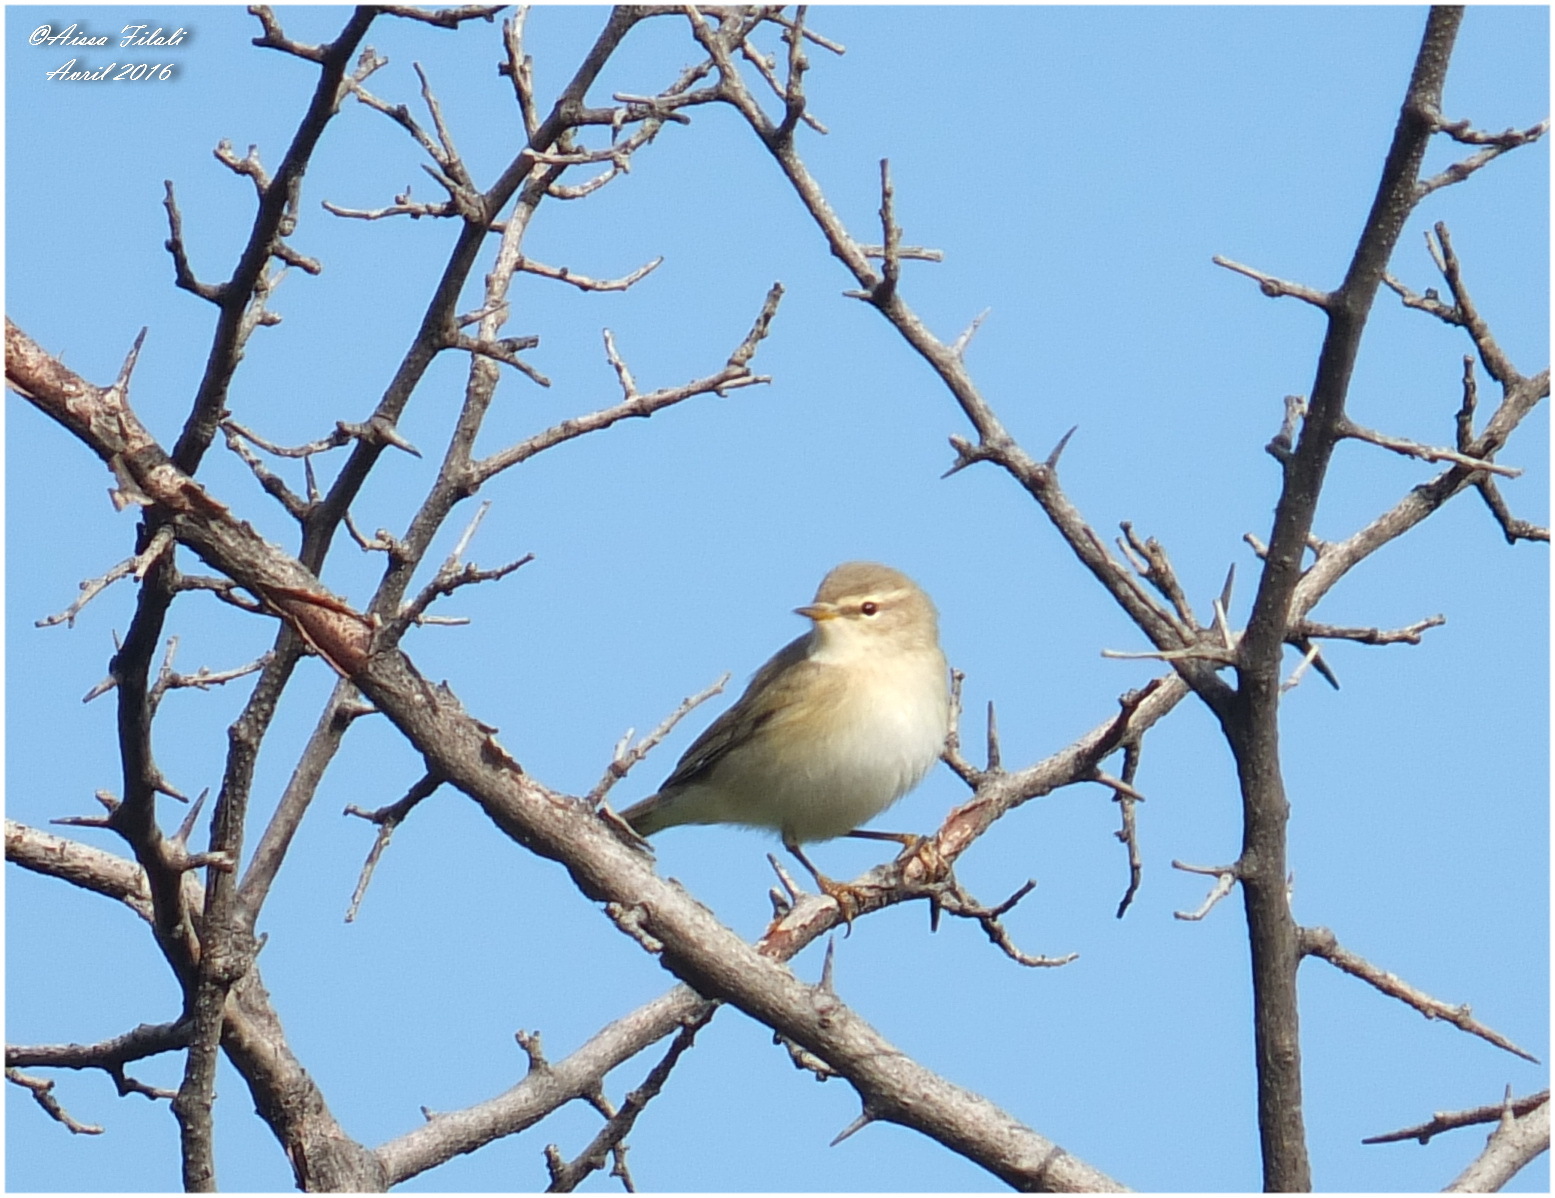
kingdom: Animalia
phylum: Chordata
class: Aves
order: Passeriformes
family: Phylloscopidae
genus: Phylloscopus
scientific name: Phylloscopus trochilus
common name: Willow warbler
